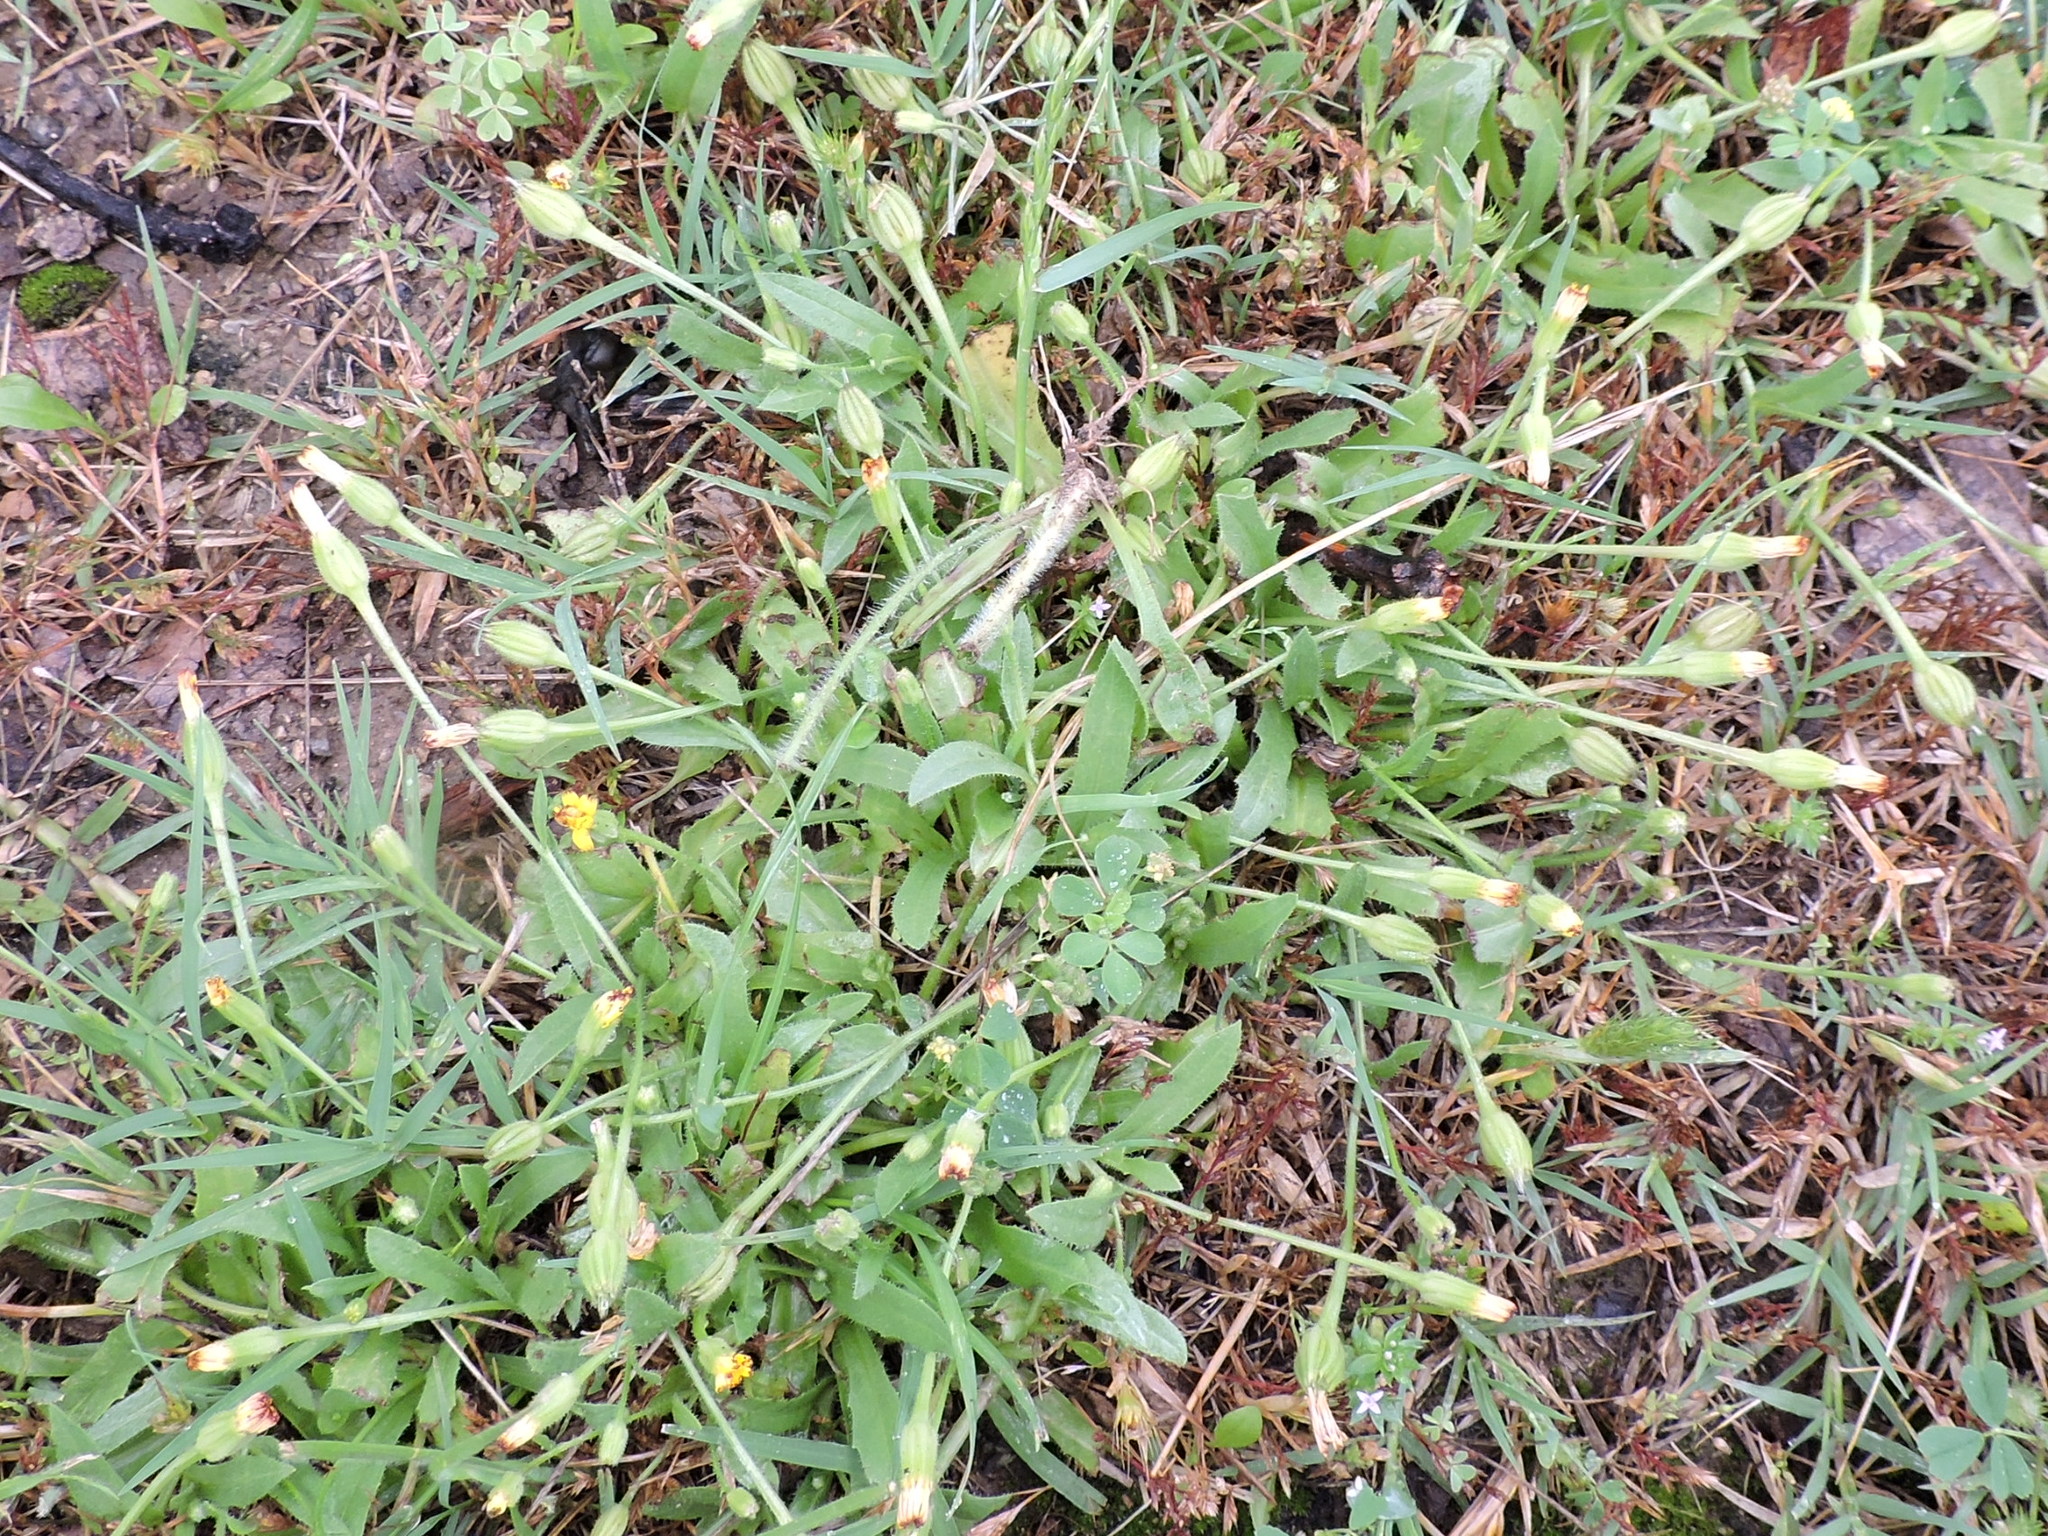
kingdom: Plantae
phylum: Tracheophyta
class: Magnoliopsida
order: Asterales
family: Asteraceae
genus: Hedypnois
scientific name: Hedypnois rhagadioloides
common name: Cretan weed
